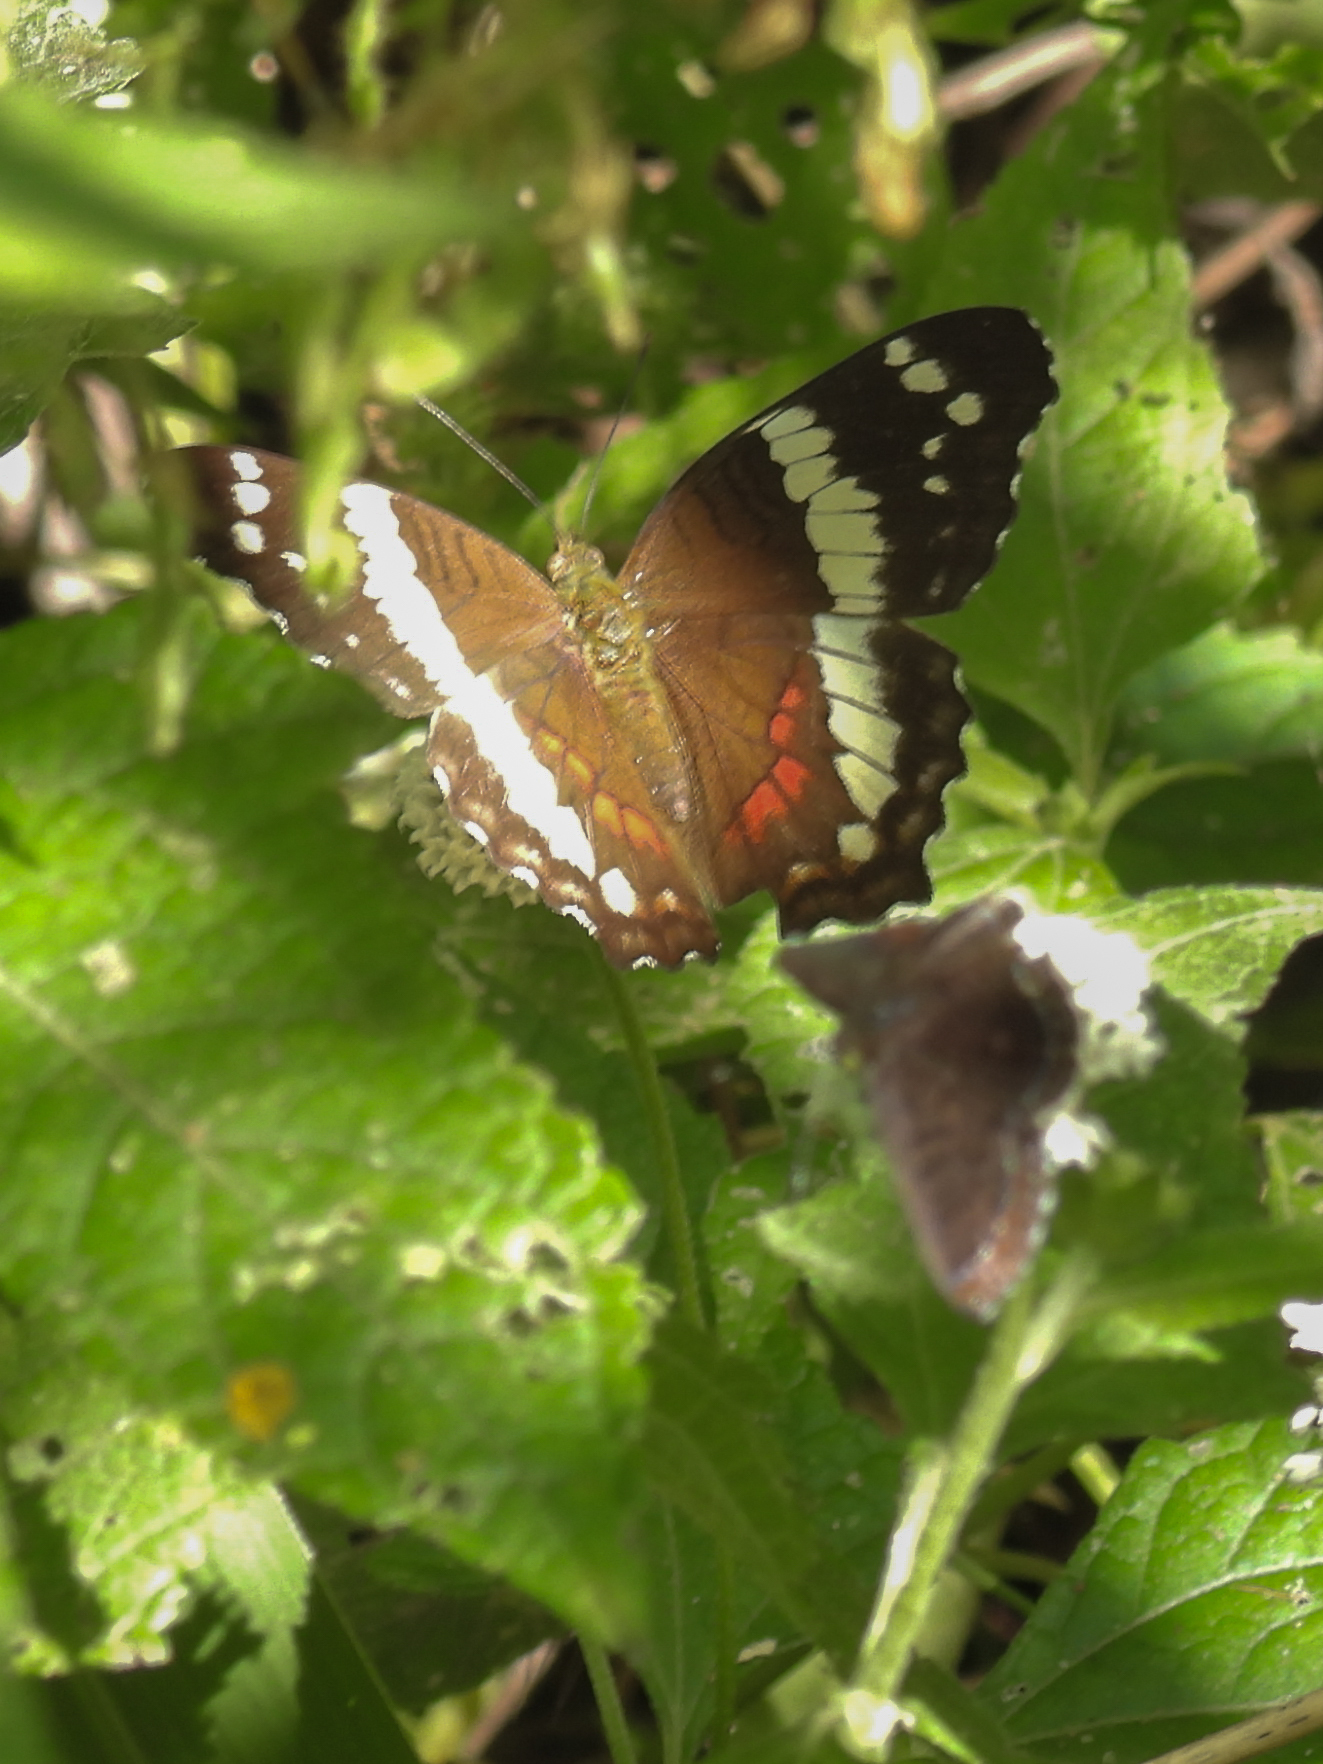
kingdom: Animalia
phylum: Arthropoda
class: Insecta
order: Lepidoptera
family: Nymphalidae
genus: Anartia
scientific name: Anartia fatima
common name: Banded peacock
